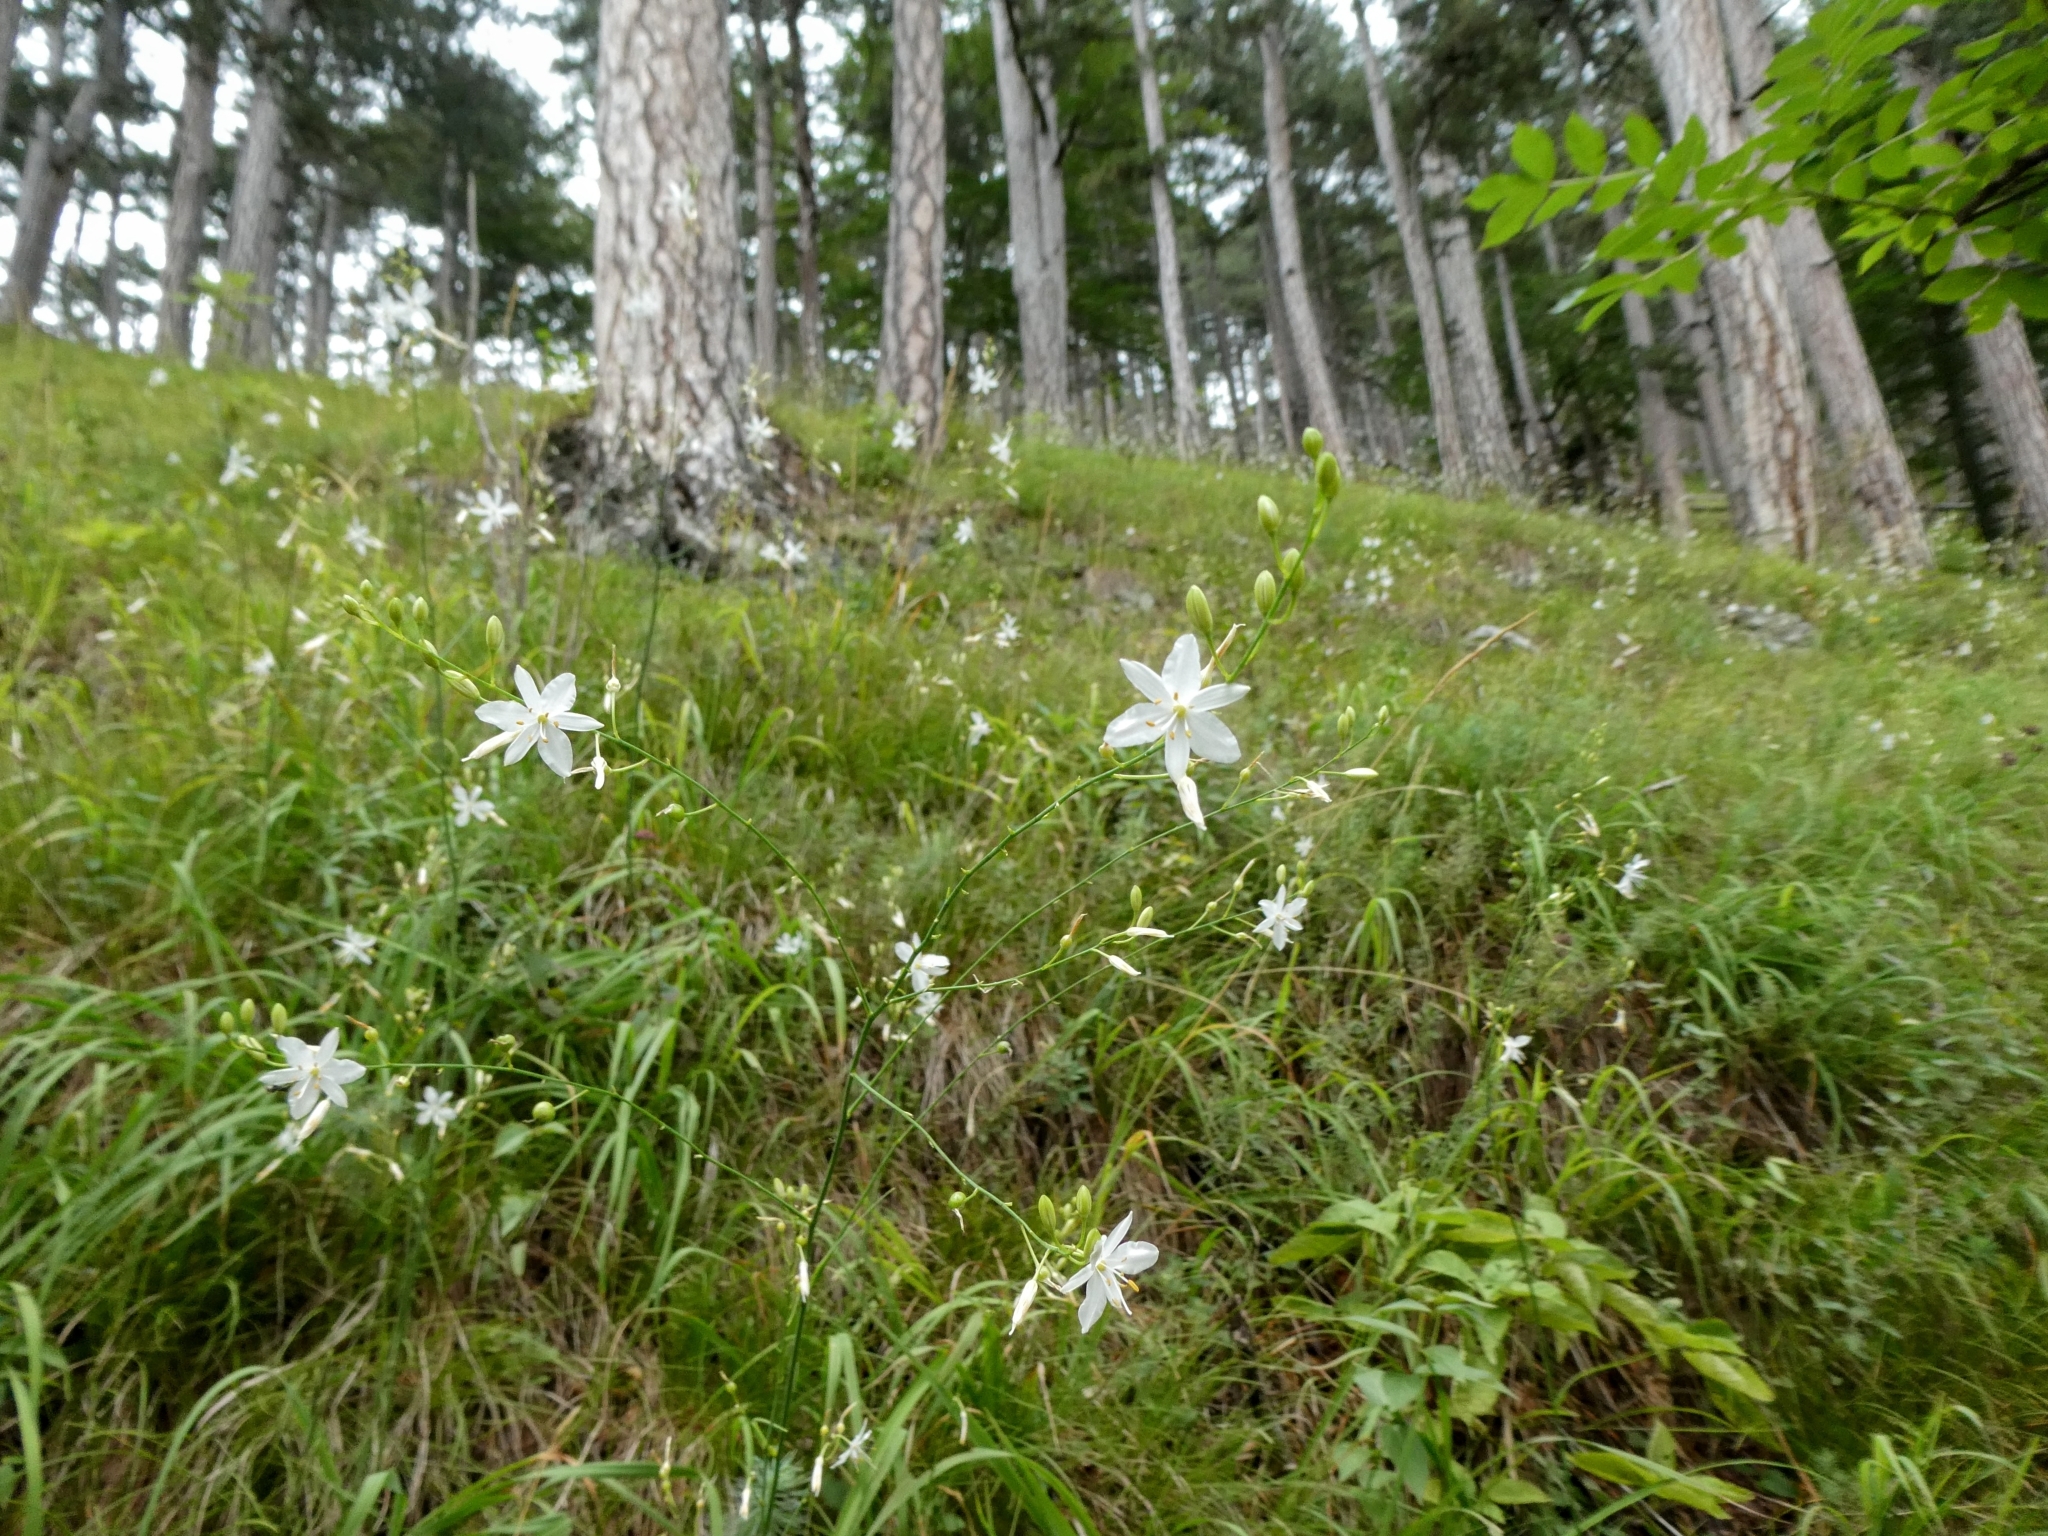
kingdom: Plantae
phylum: Tracheophyta
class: Liliopsida
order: Asparagales
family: Asparagaceae
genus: Anthericum
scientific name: Anthericum ramosum
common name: Branched st. bernard's-lily
